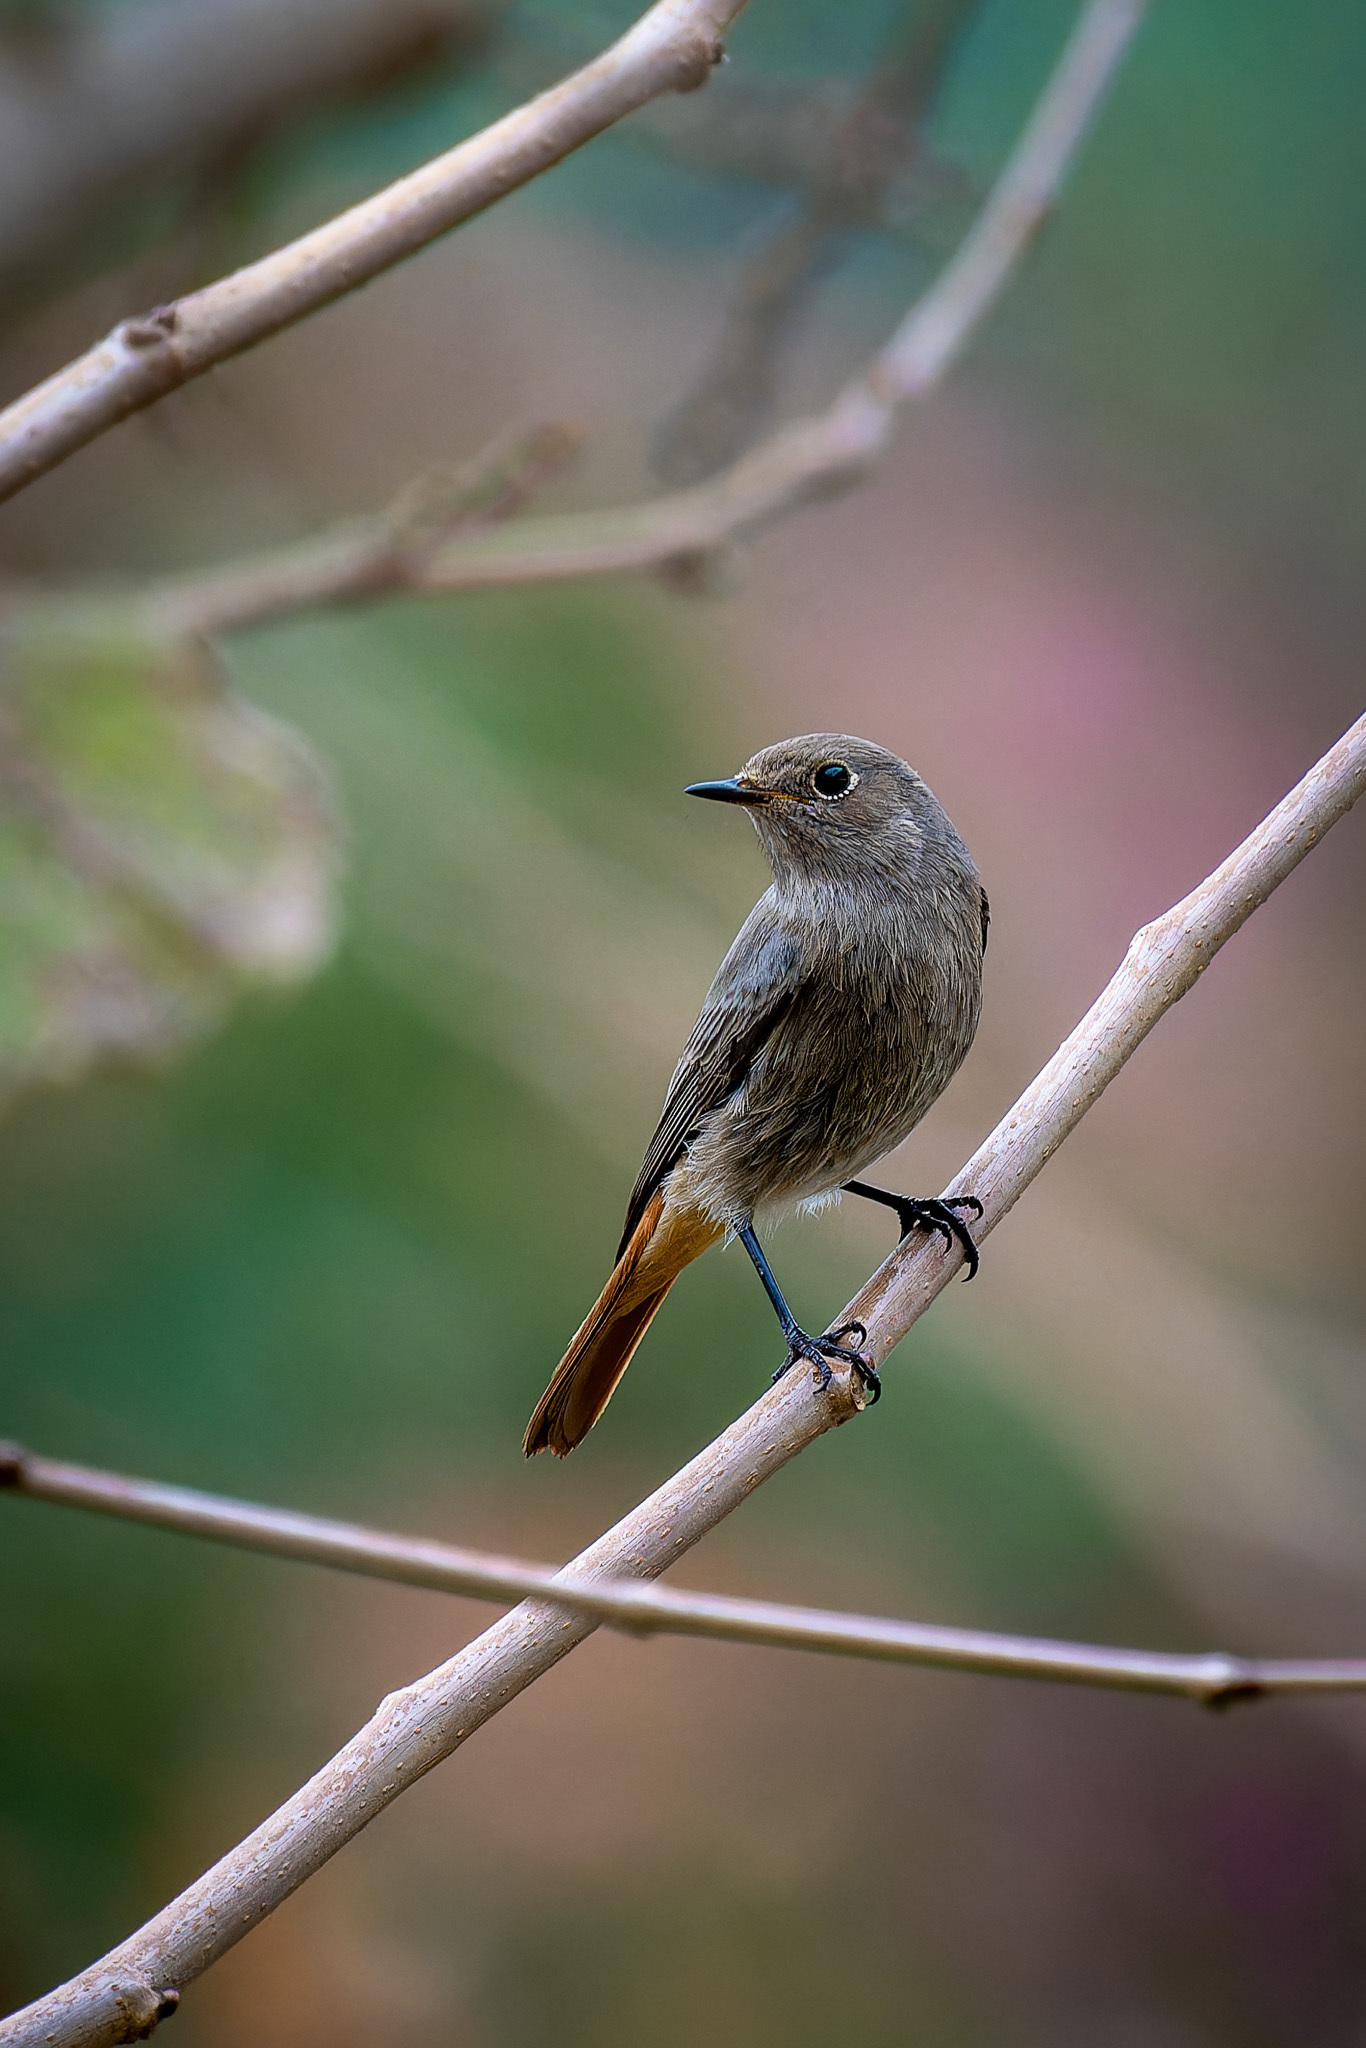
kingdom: Animalia
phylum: Chordata
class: Aves
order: Passeriformes
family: Muscicapidae
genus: Phoenicurus
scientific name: Phoenicurus ochruros
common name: Black redstart
